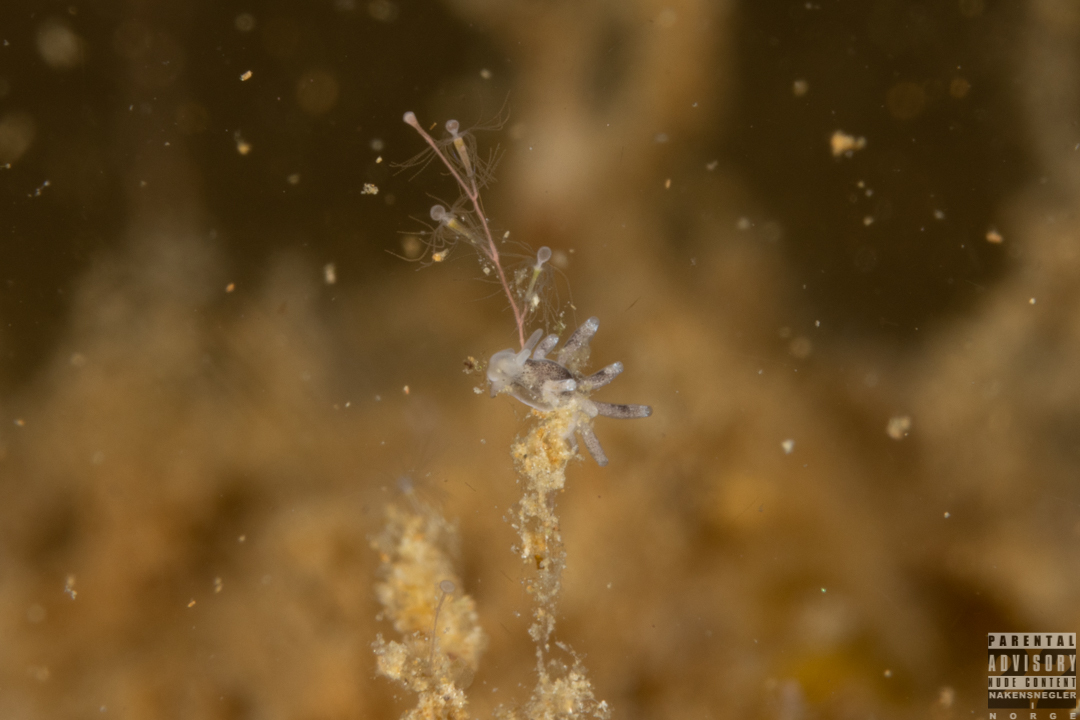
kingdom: Animalia
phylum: Mollusca
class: Gastropoda
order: Nudibranchia
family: Trinchesiidae
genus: Tenellia
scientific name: Tenellia adspersa
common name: Lagoon sea slug
